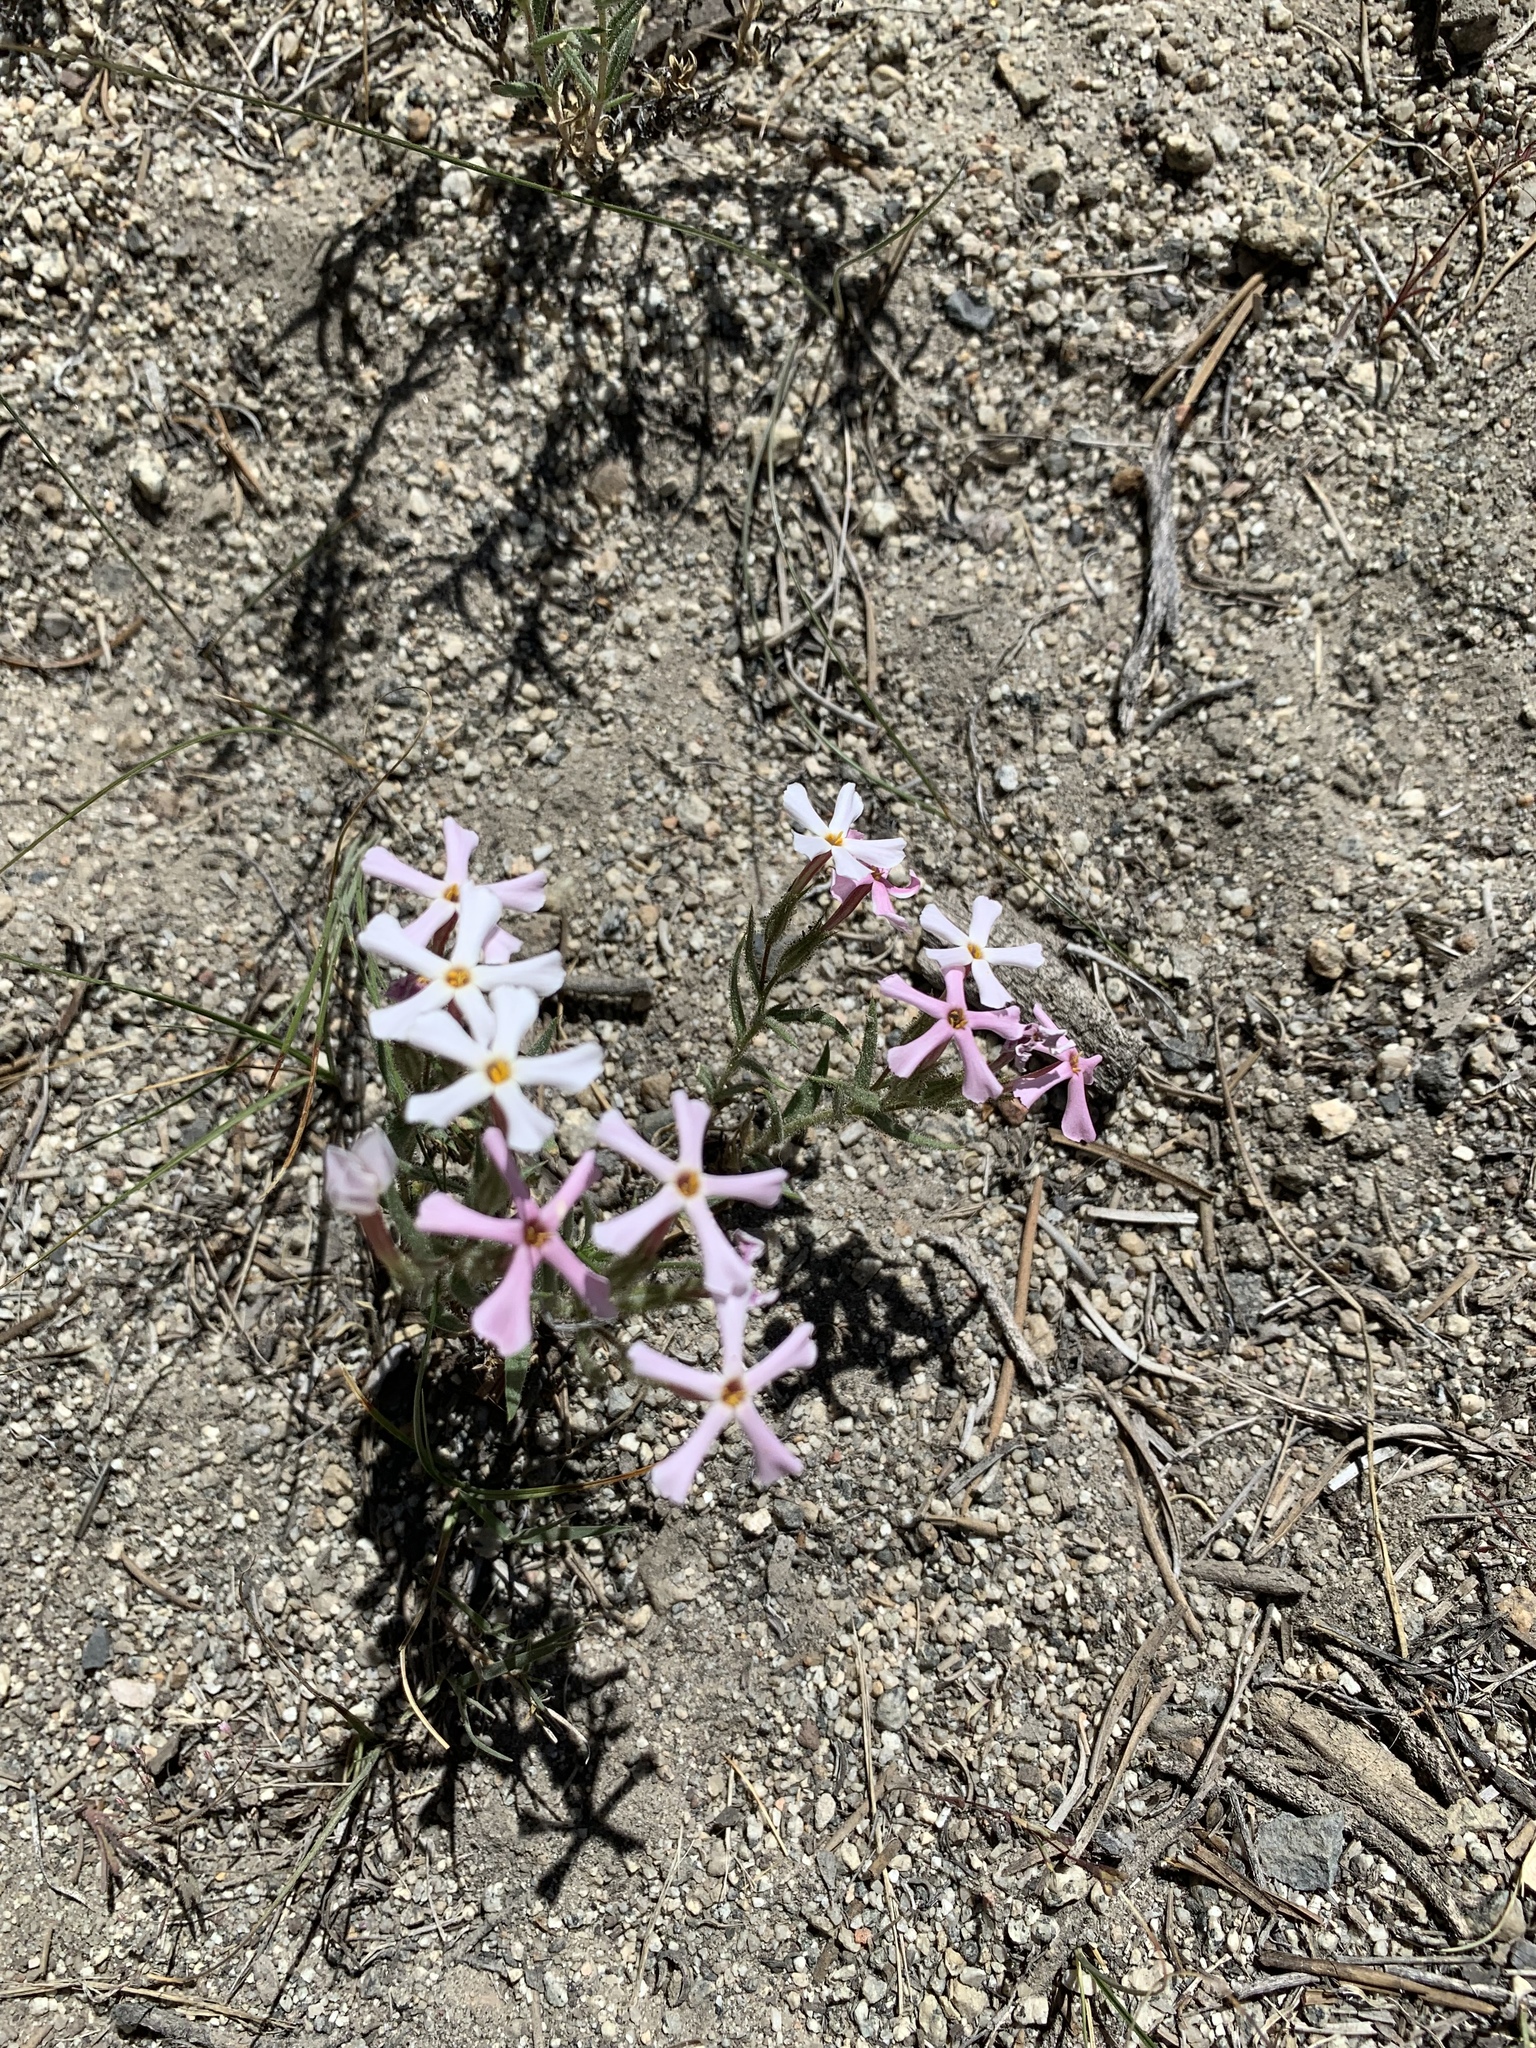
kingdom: Plantae
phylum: Tracheophyta
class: Magnoliopsida
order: Ericales
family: Polemoniaceae
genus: Phlox
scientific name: Phlox longifolia
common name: Longleaf phlox
